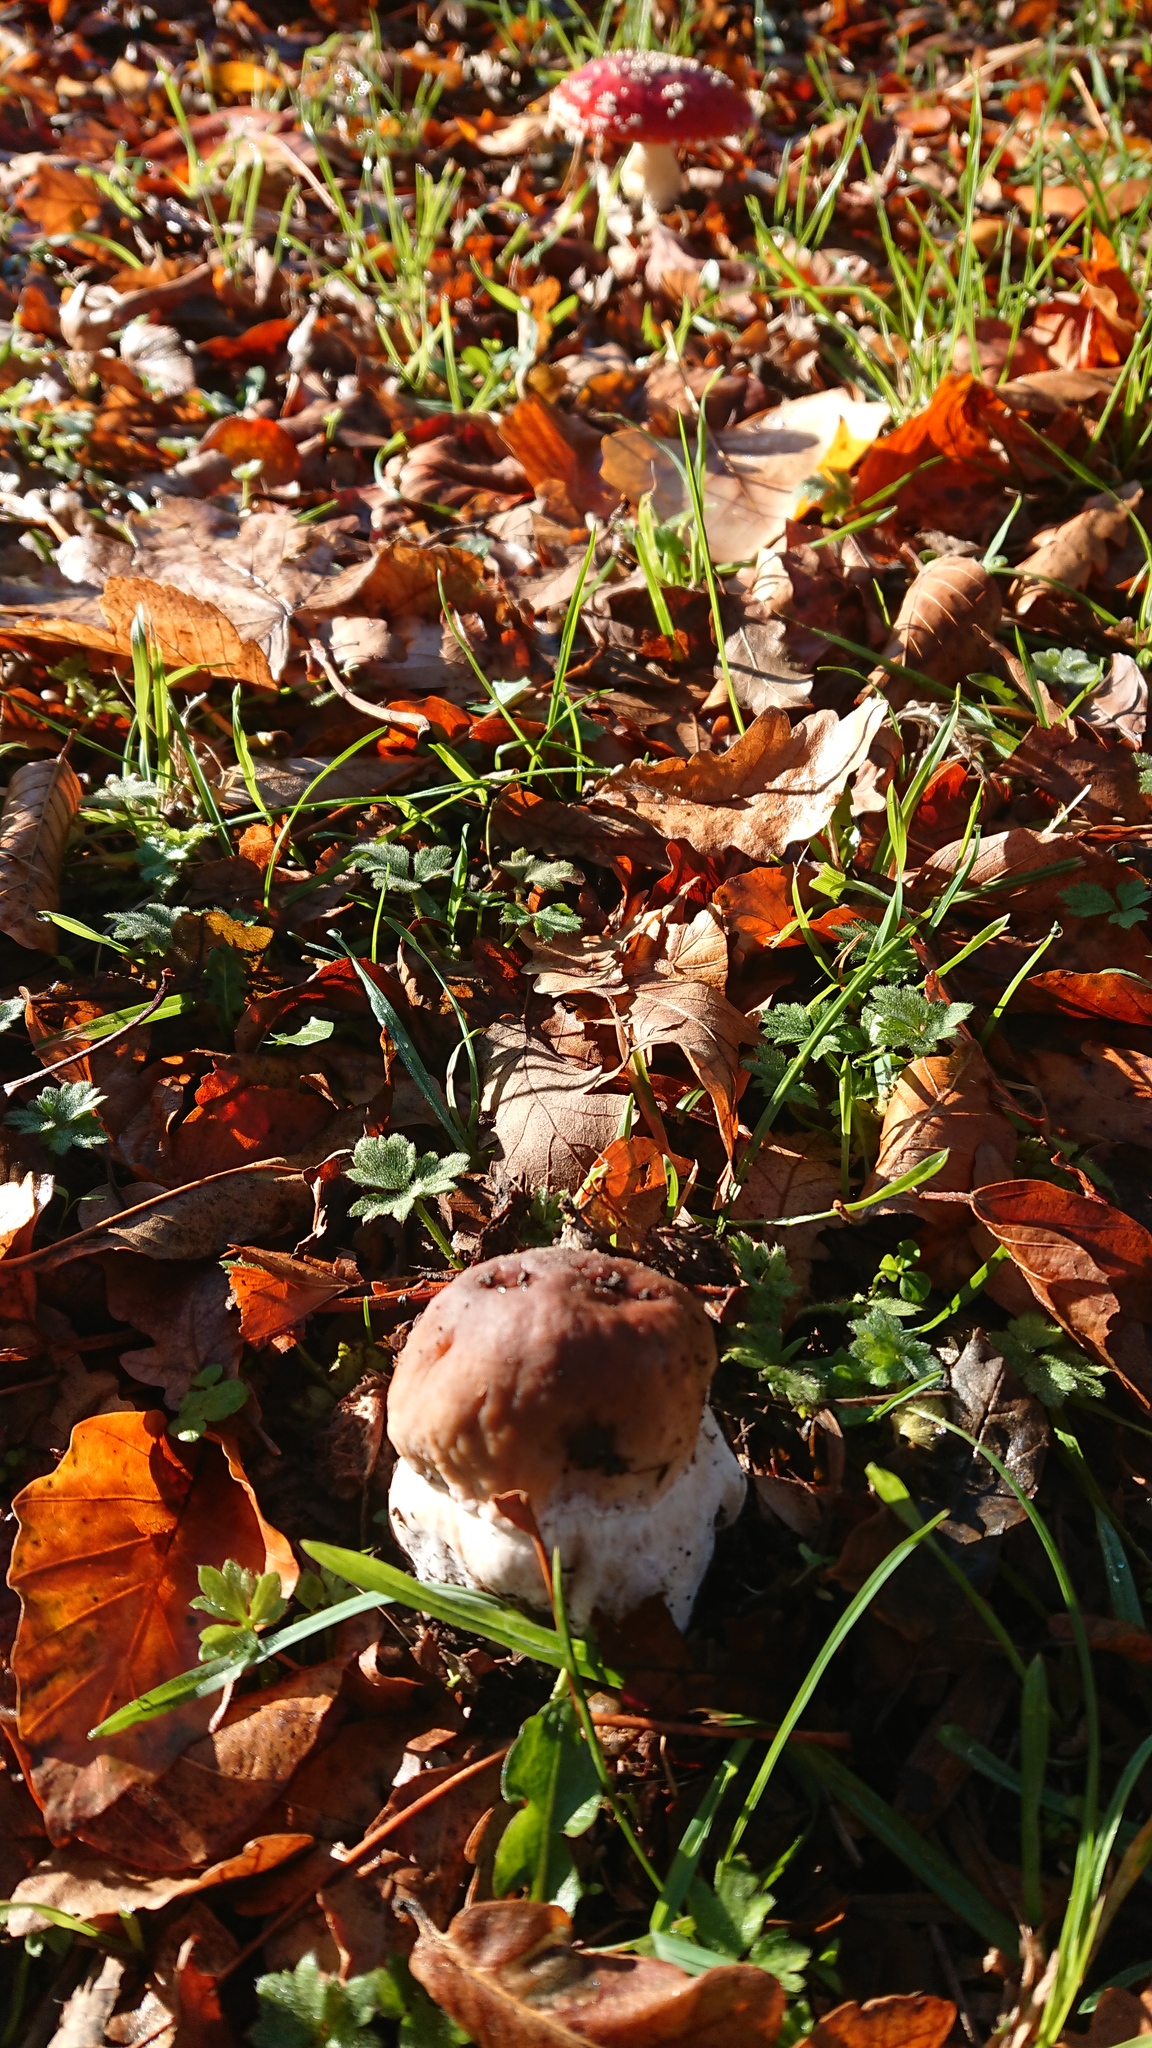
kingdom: Fungi
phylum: Basidiomycota
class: Agaricomycetes
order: Boletales
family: Boletaceae
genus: Boletus
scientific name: Boletus edulis
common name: Cep
